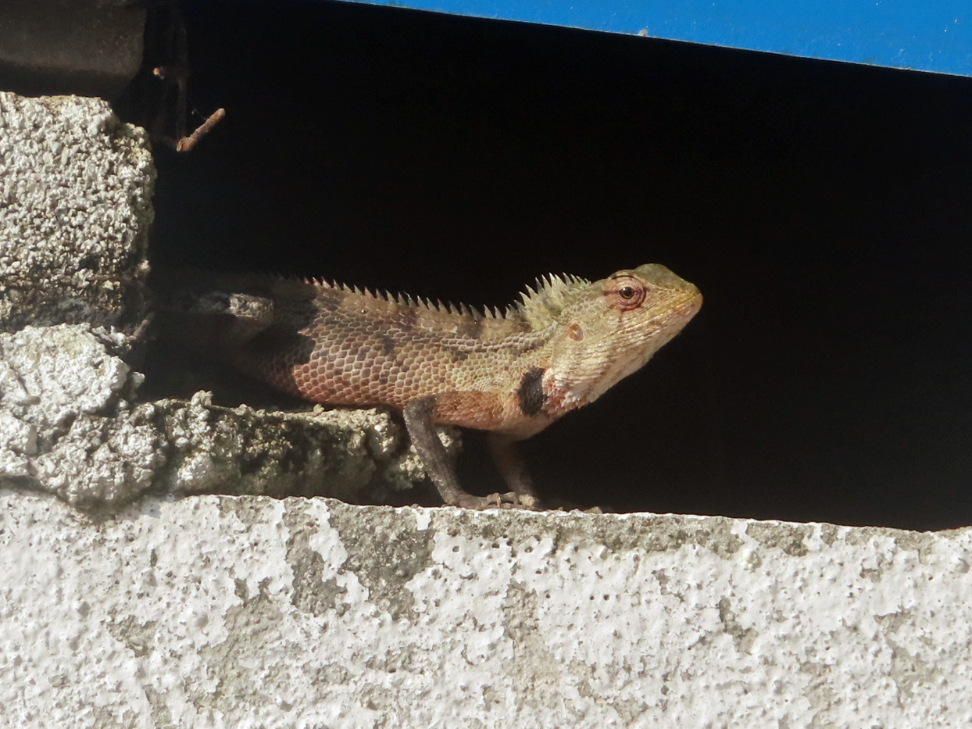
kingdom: Animalia
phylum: Chordata
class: Squamata
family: Agamidae
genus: Calotes
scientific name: Calotes versicolor
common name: Oriental garden lizard
